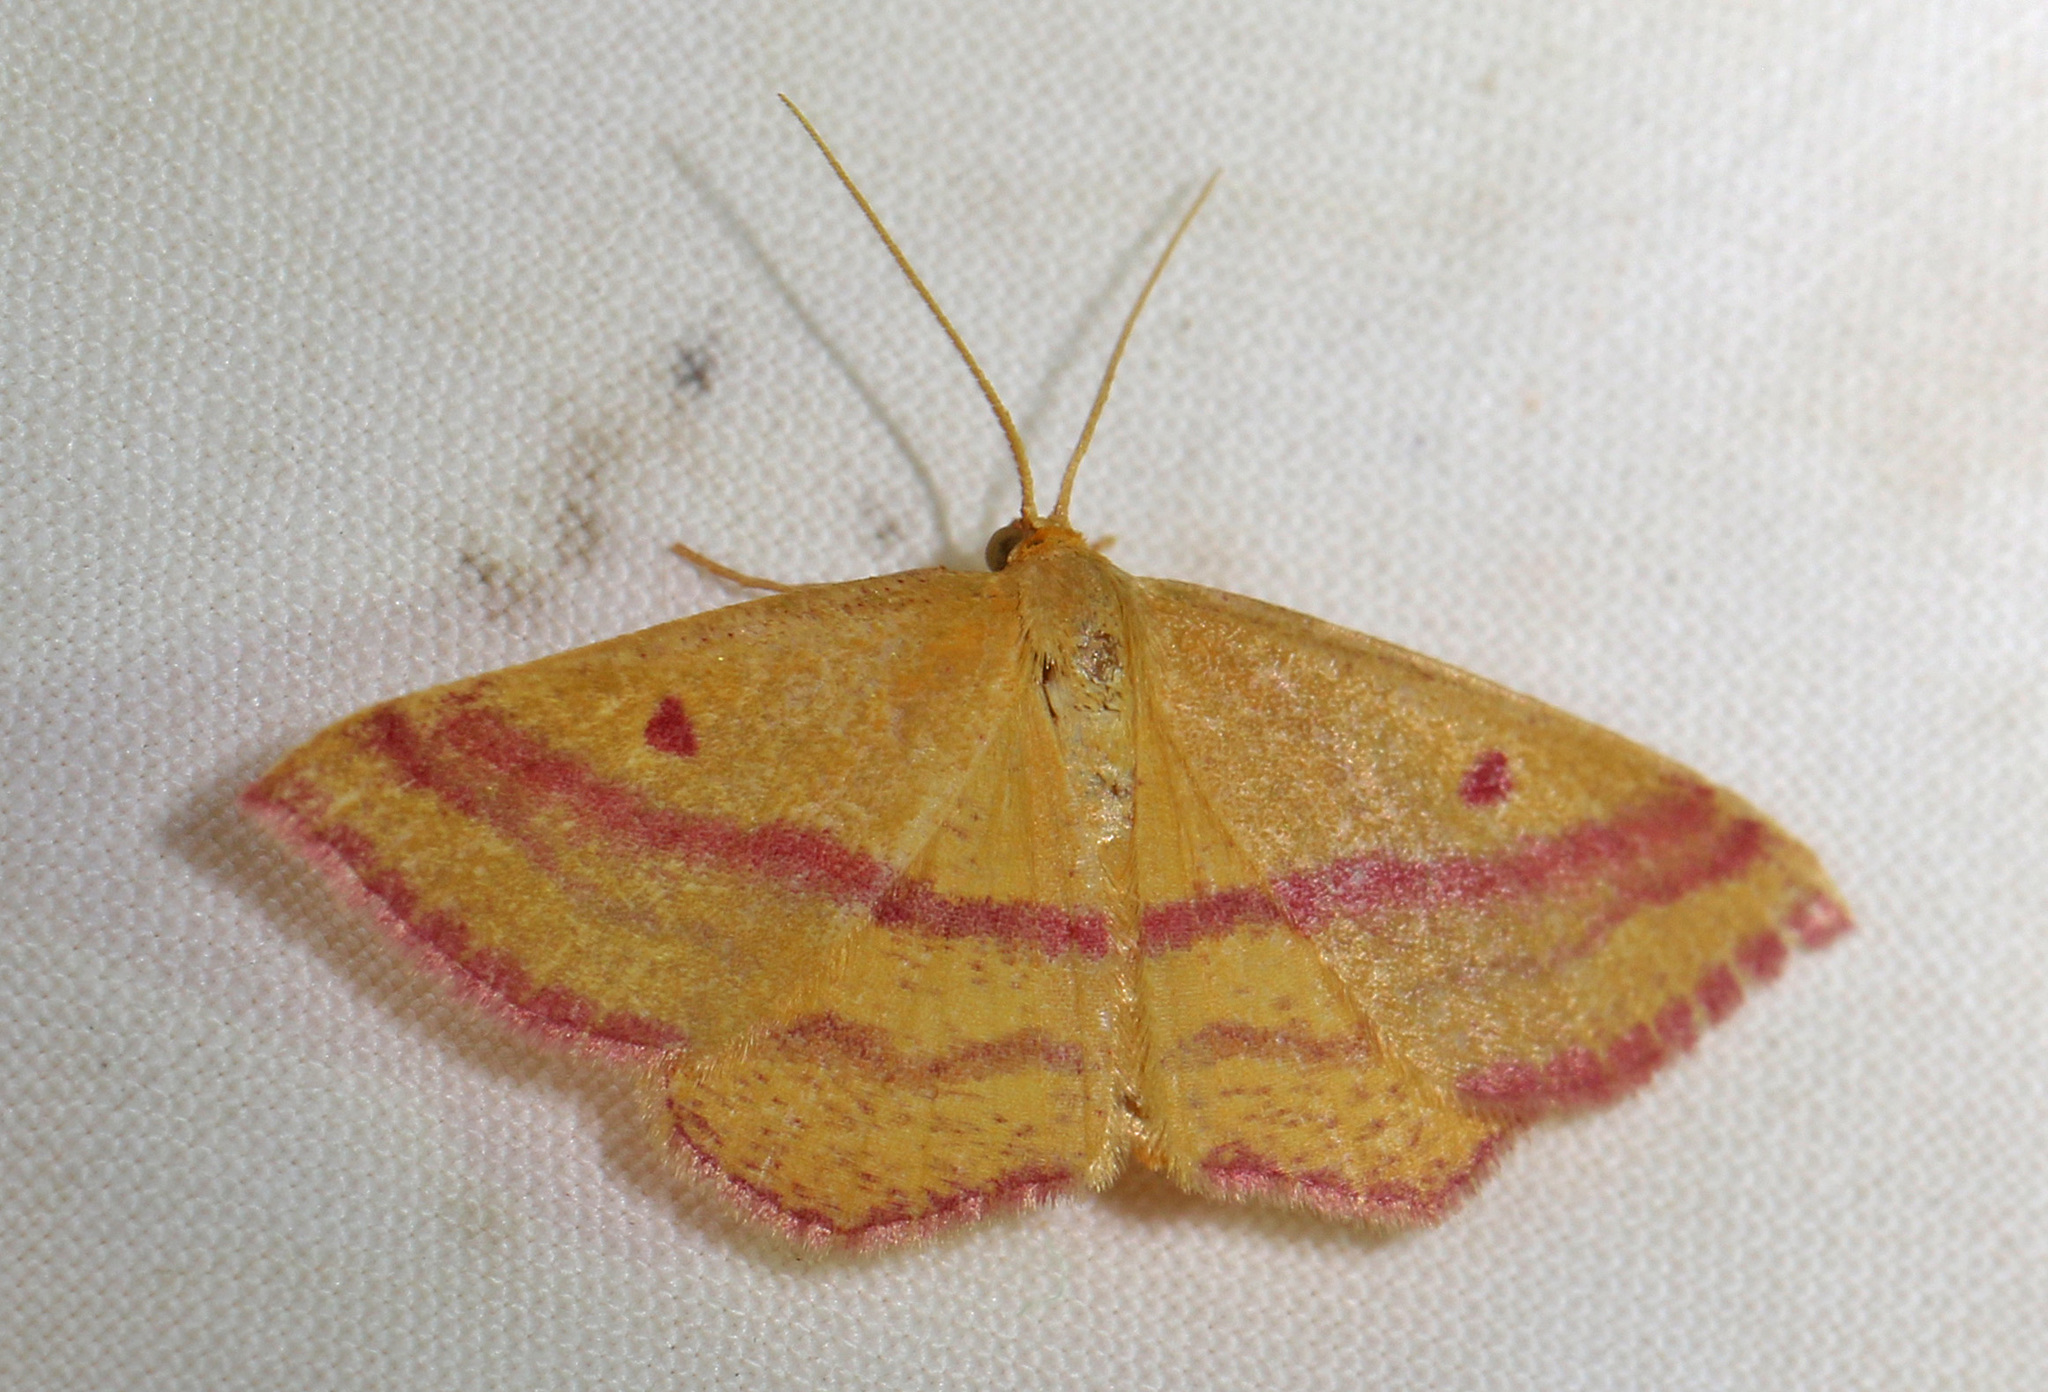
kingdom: Animalia
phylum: Arthropoda
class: Insecta
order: Lepidoptera
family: Geometridae
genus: Haematopis
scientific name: Haematopis grataria
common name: Chickweed geometer
